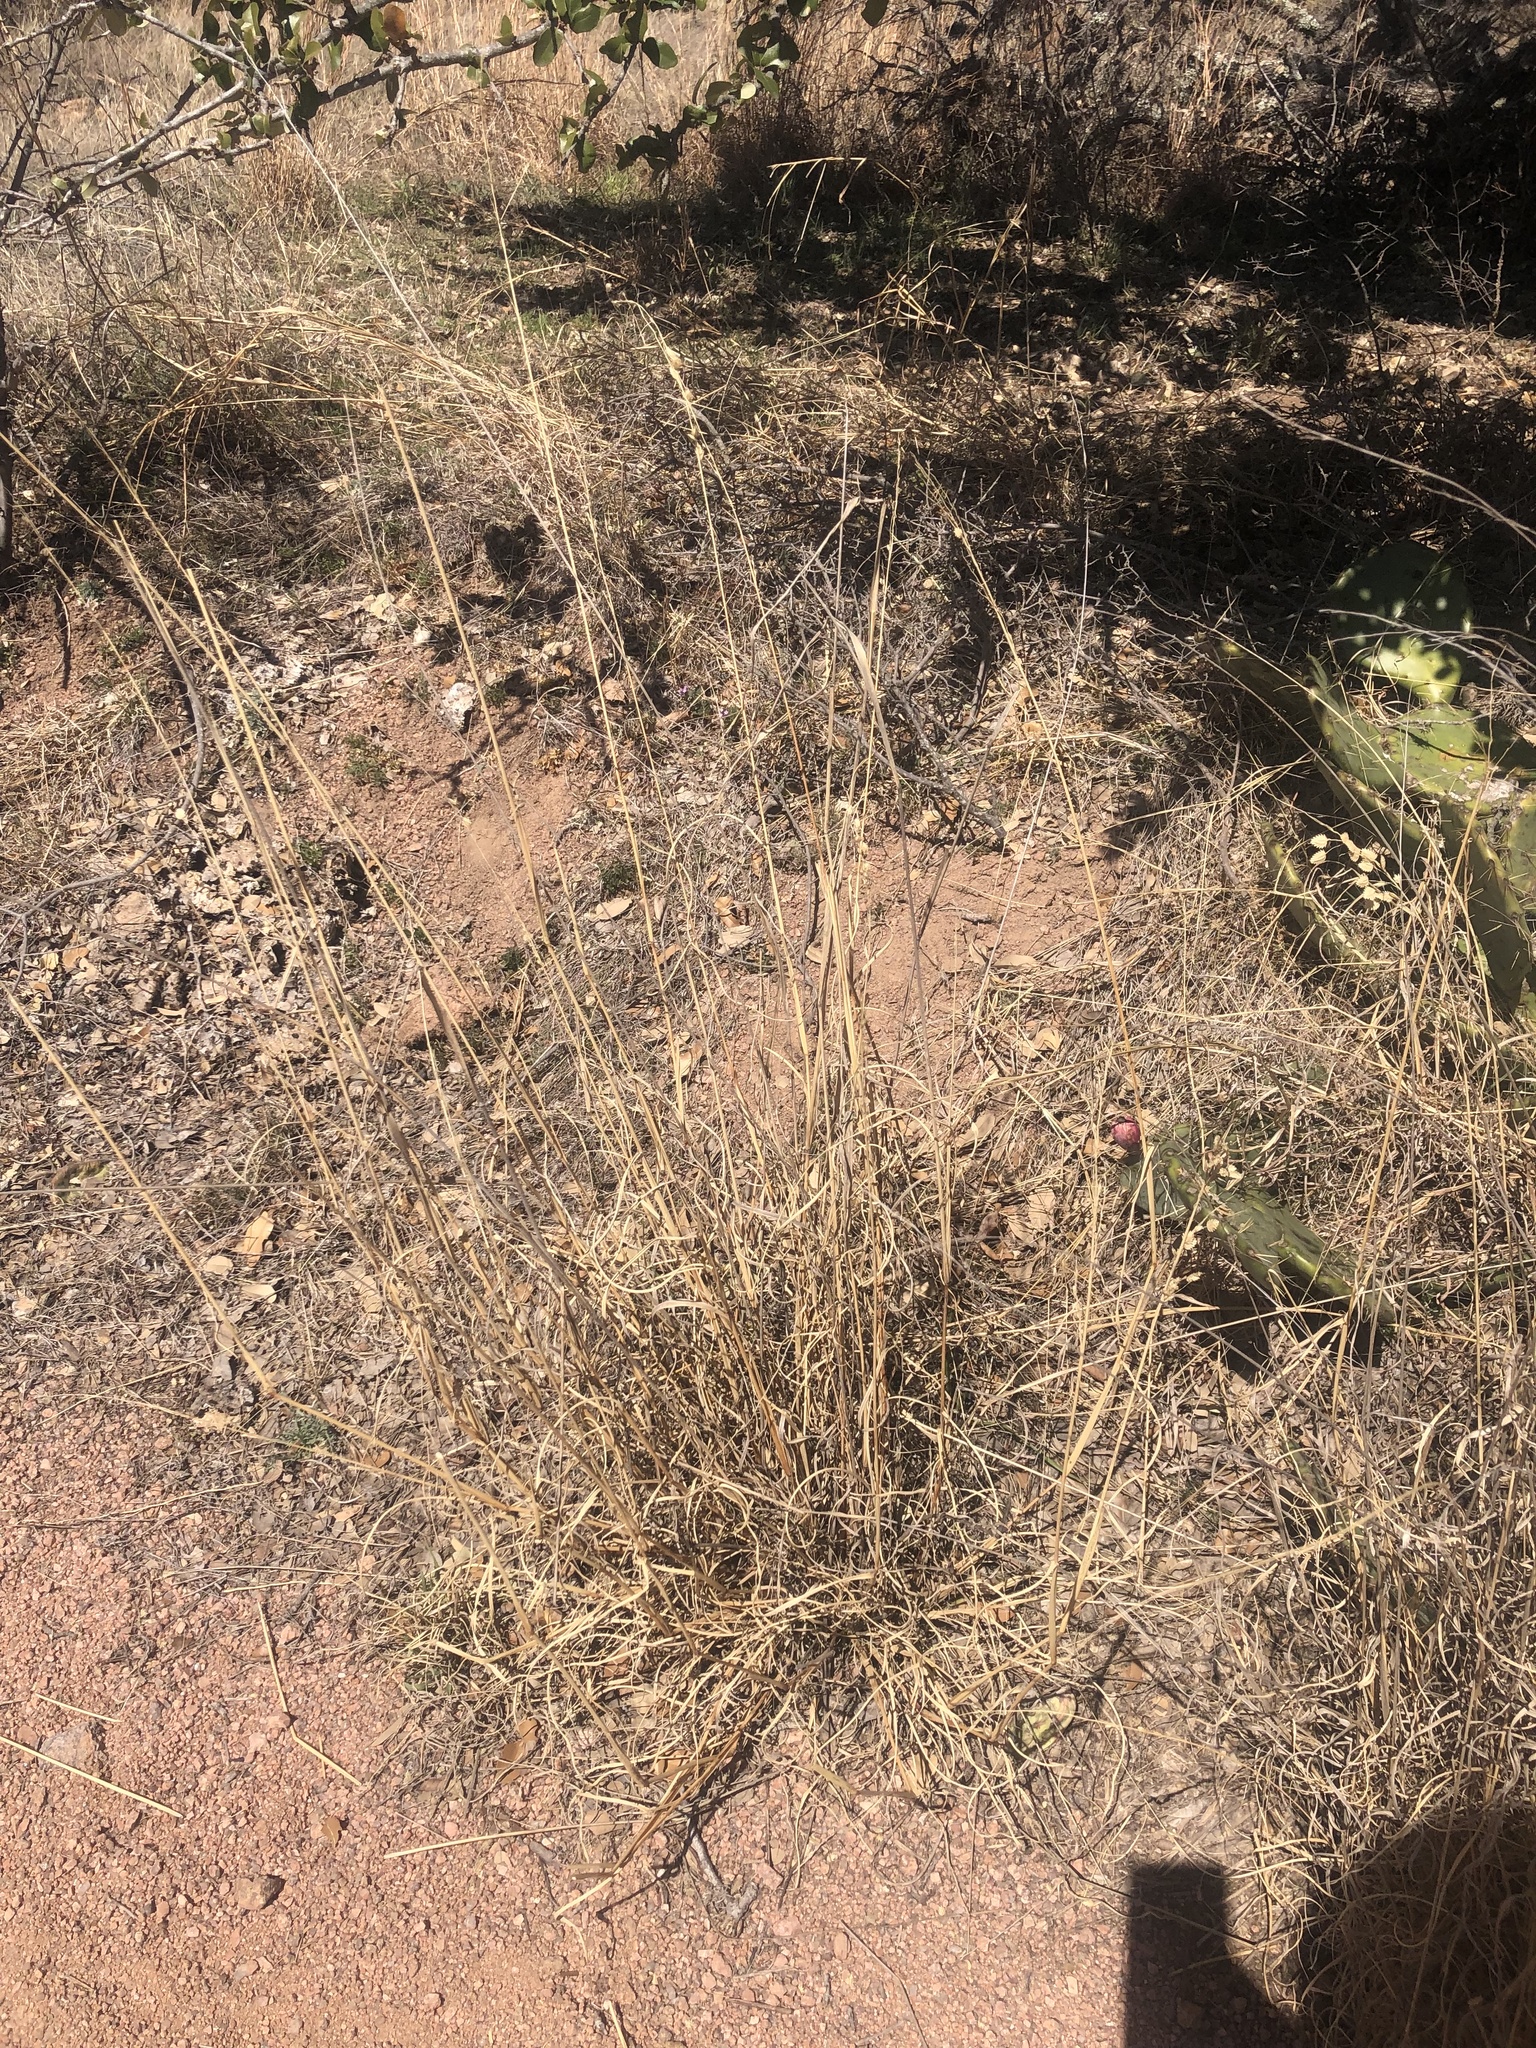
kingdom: Plantae
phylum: Tracheophyta
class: Liliopsida
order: Poales
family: Poaceae
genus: Eragrostis
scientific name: Eragrostis superba
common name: Wilman lovegrass
